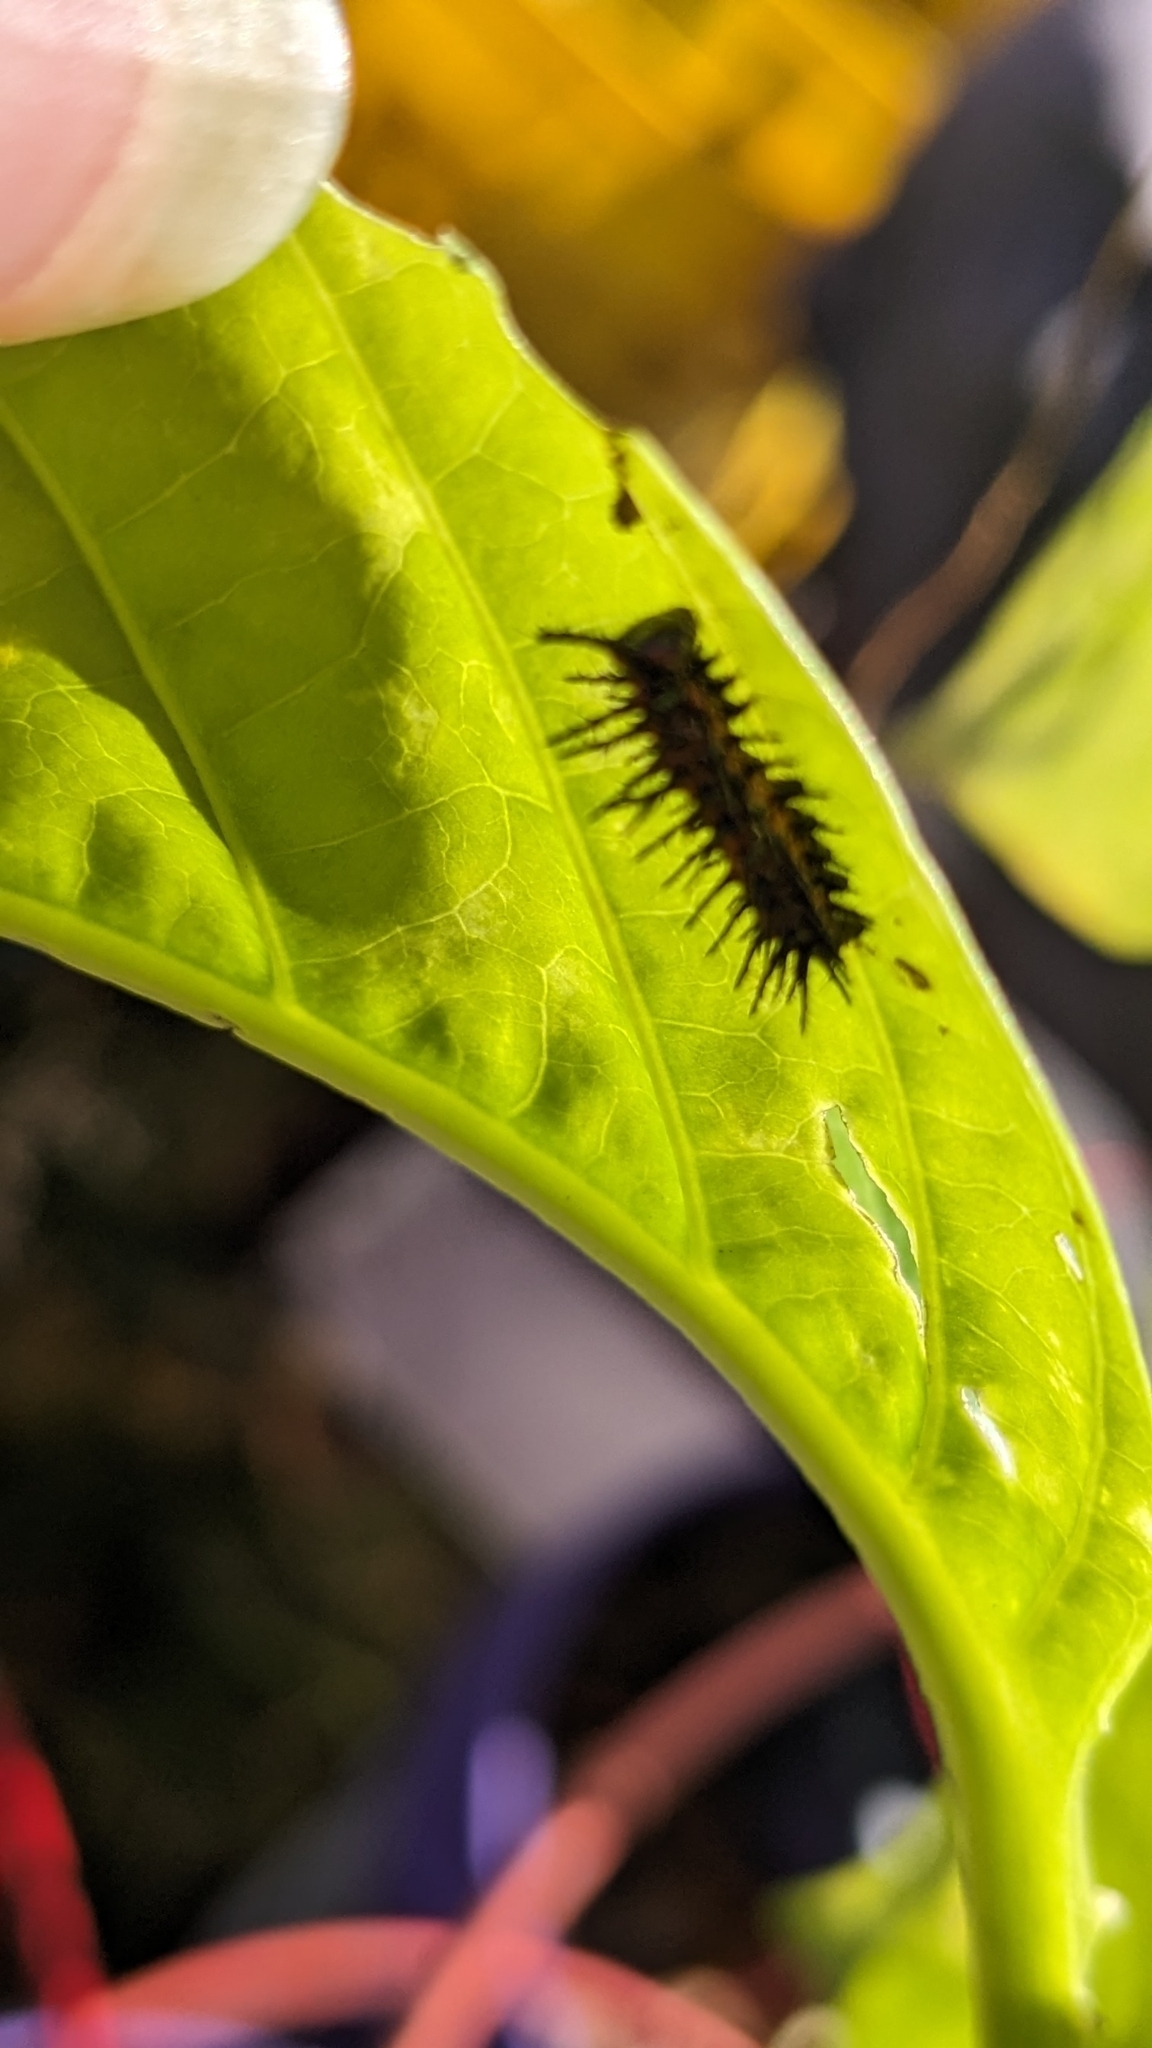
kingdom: Animalia
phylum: Arthropoda
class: Insecta
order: Lepidoptera
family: Nymphalidae
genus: Dione
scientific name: Dione vanillae
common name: Gulf fritillary
